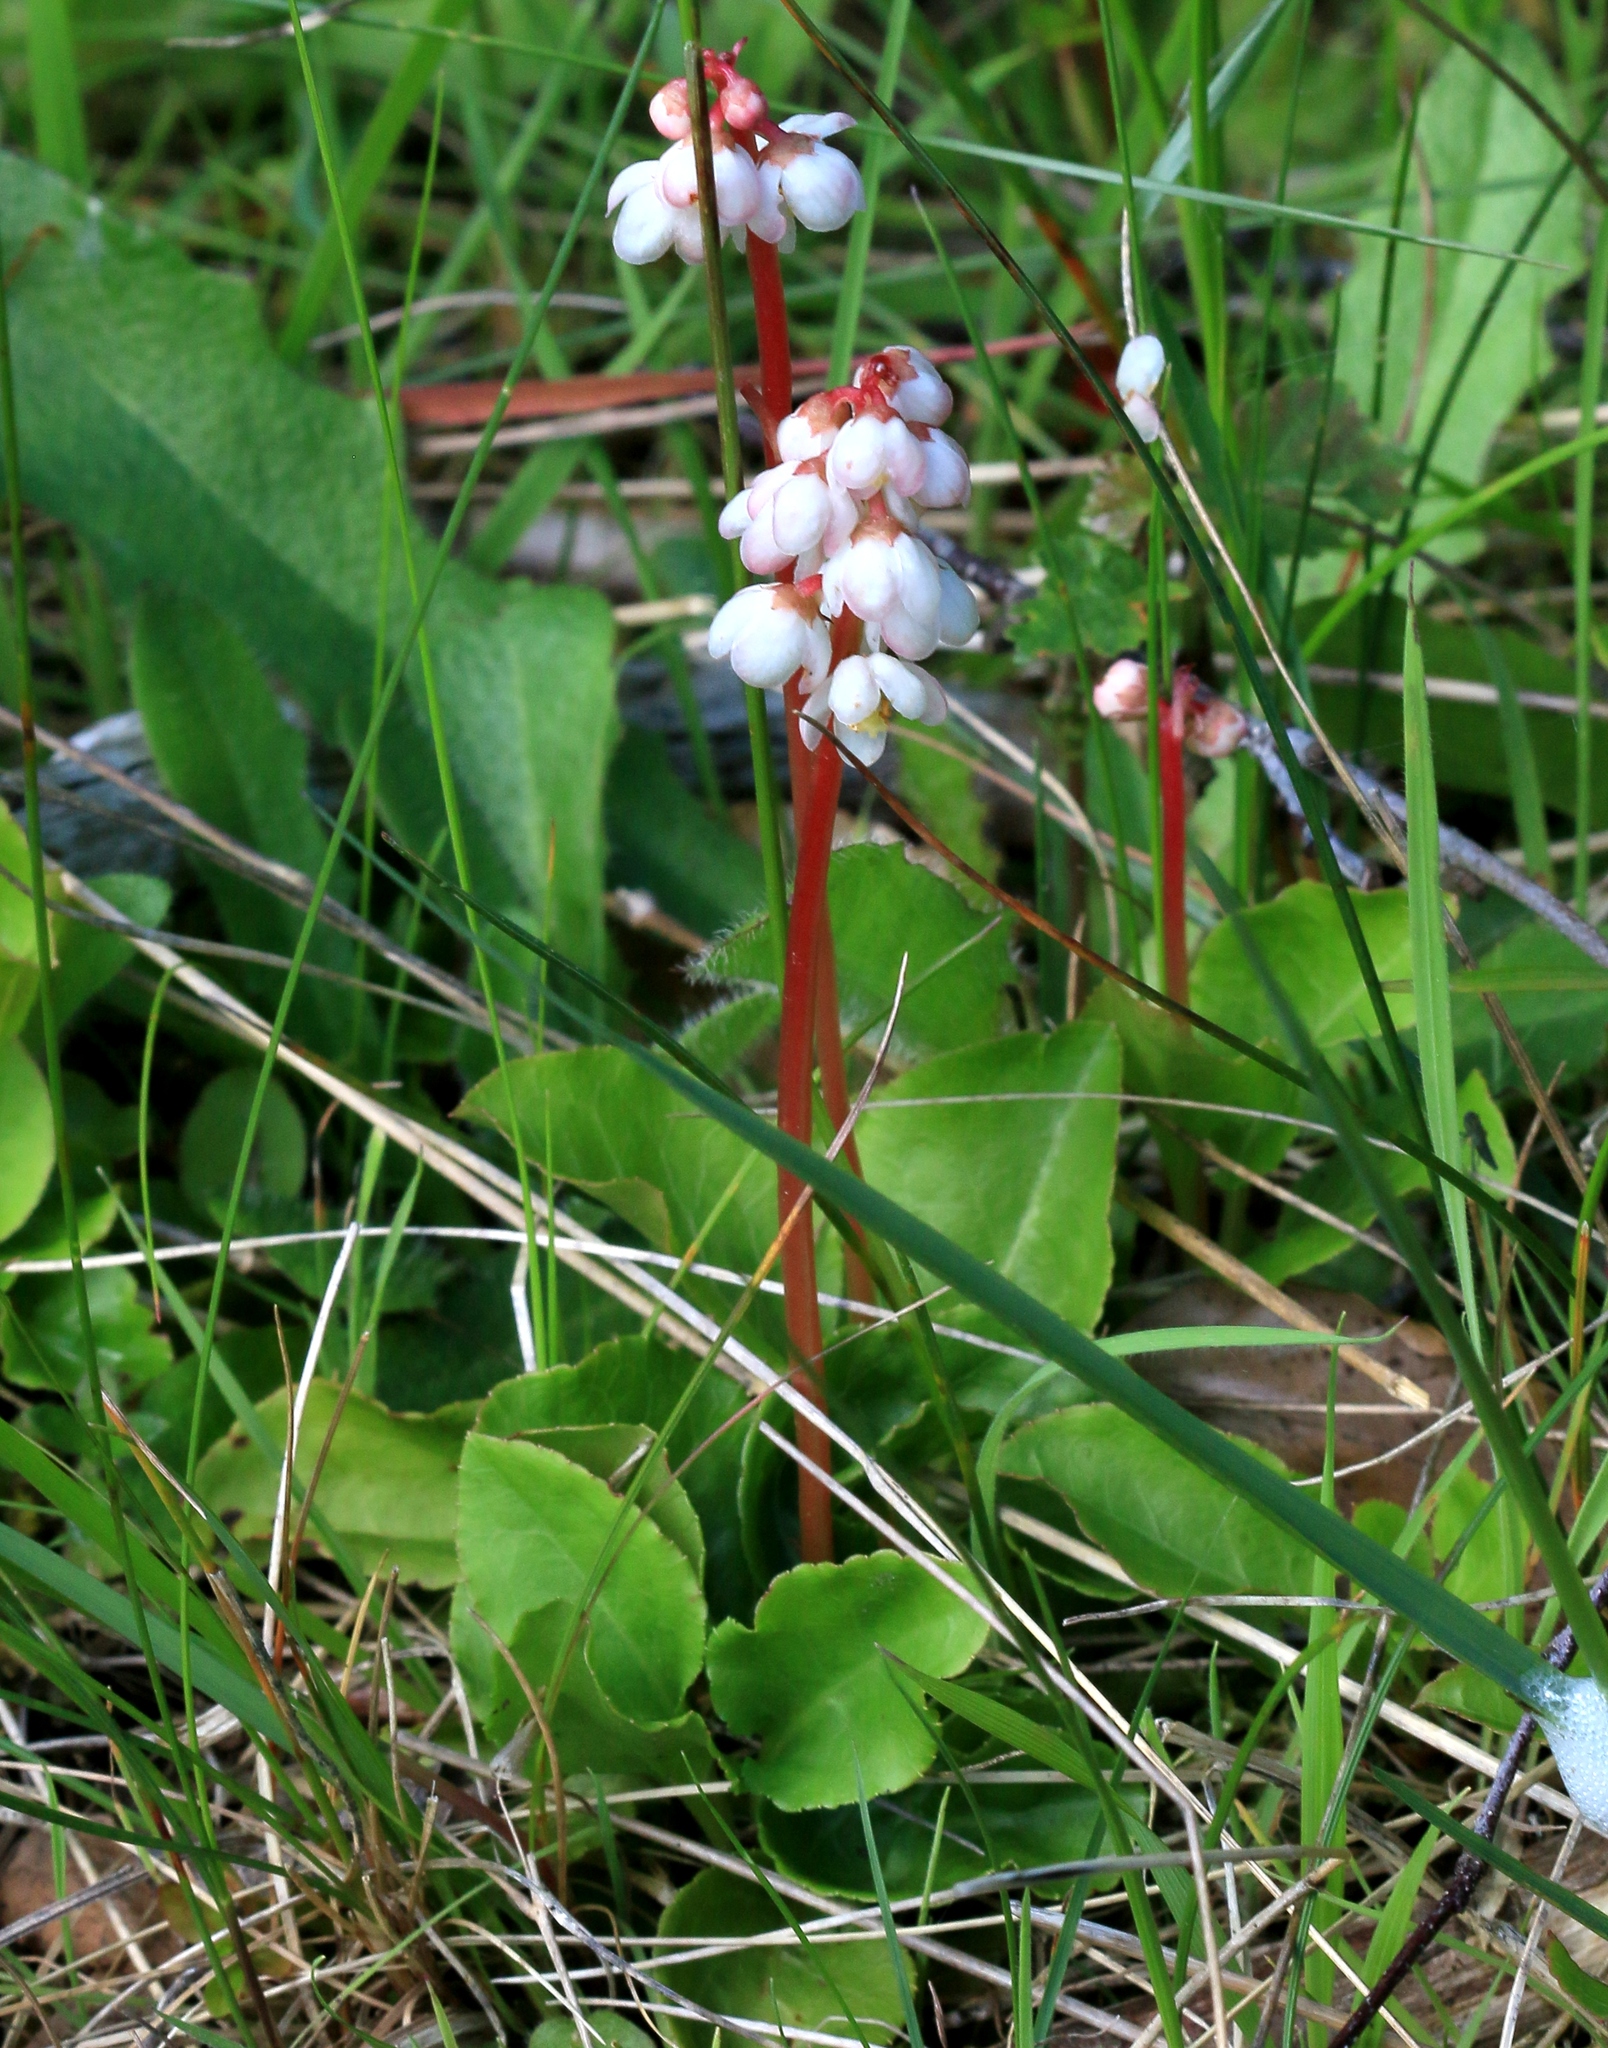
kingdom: Plantae
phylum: Tracheophyta
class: Magnoliopsida
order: Ericales
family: Ericaceae
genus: Pyrola
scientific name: Pyrola minor
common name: Common wintergreen
